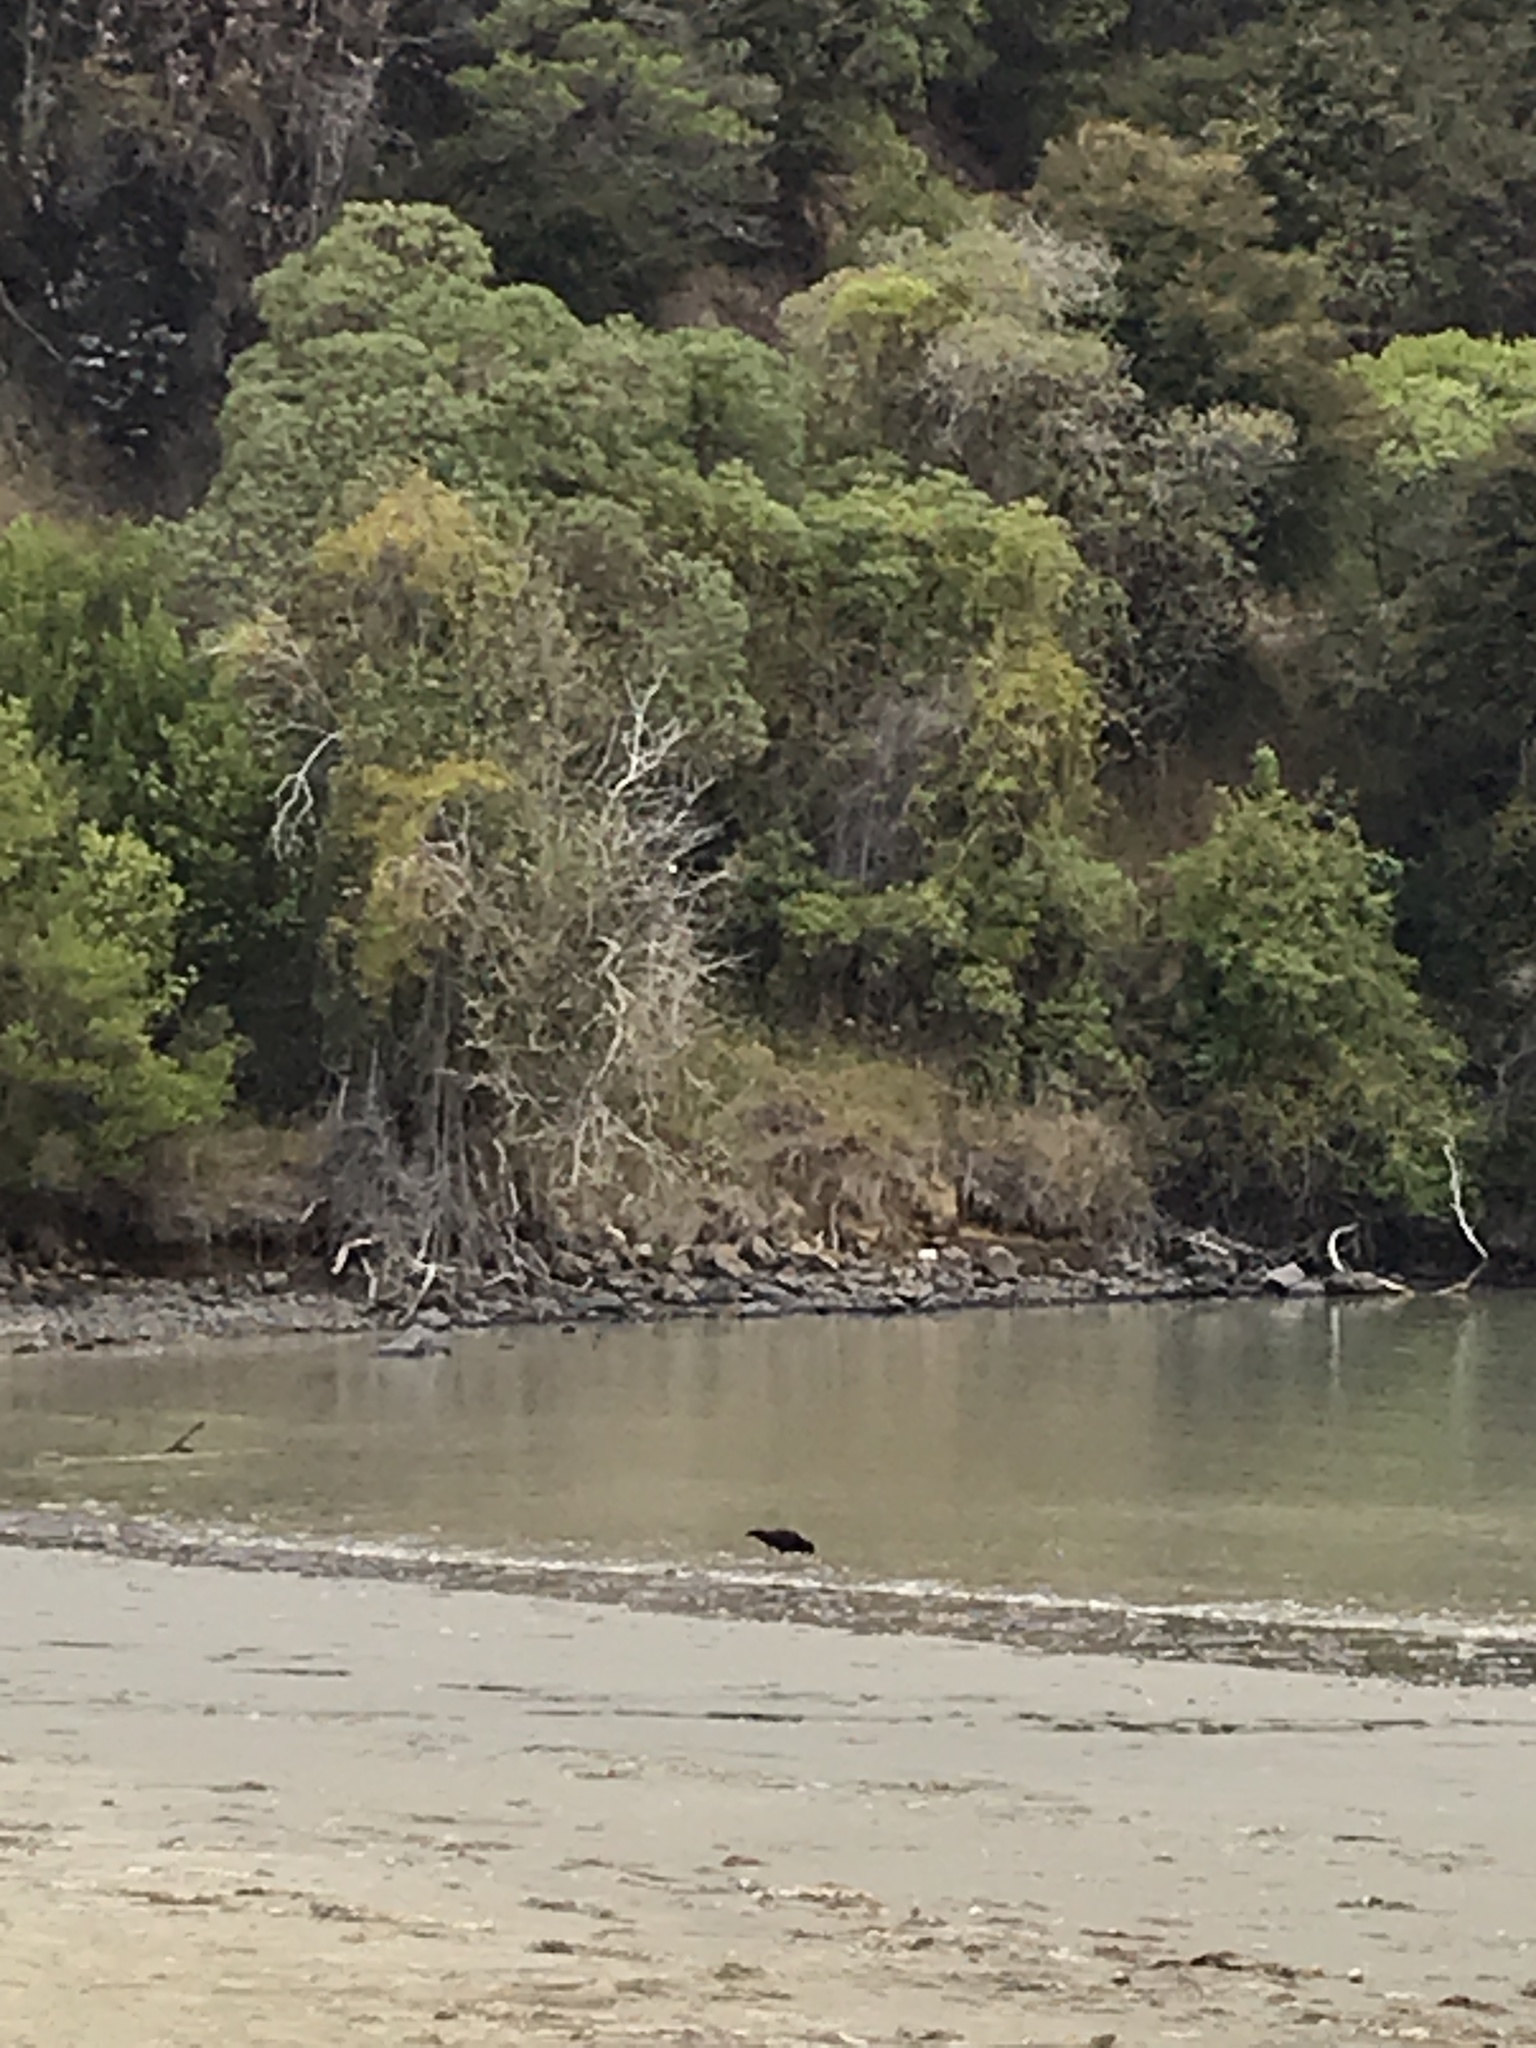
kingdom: Animalia
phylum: Chordata
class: Aves
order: Charadriiformes
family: Haematopodidae
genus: Haematopus
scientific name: Haematopus unicolor
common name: Variable oystercatcher
